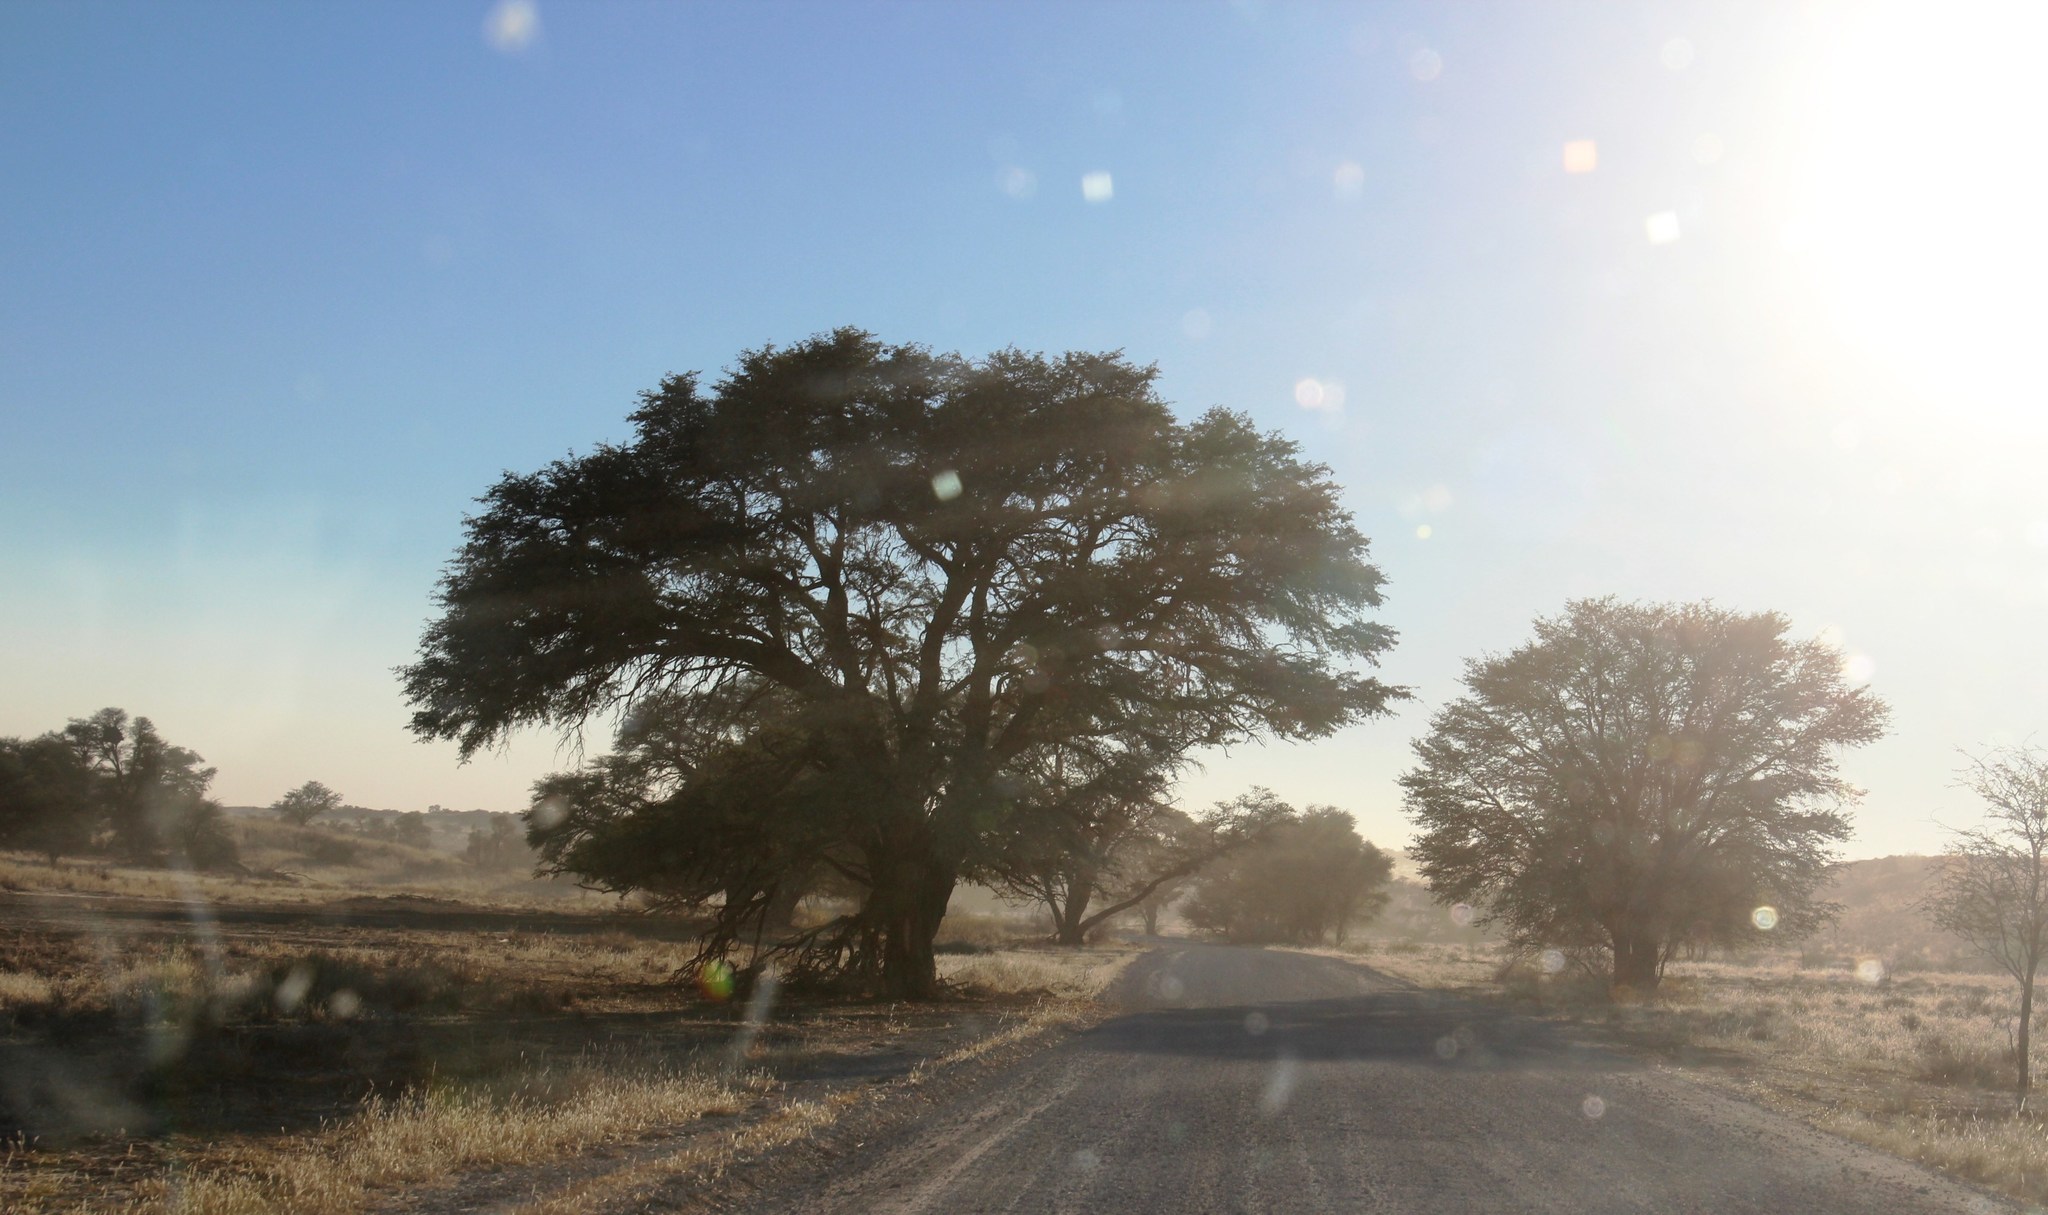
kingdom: Plantae
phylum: Tracheophyta
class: Magnoliopsida
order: Fabales
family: Fabaceae
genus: Vachellia
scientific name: Vachellia erioloba
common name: Camel thorn
